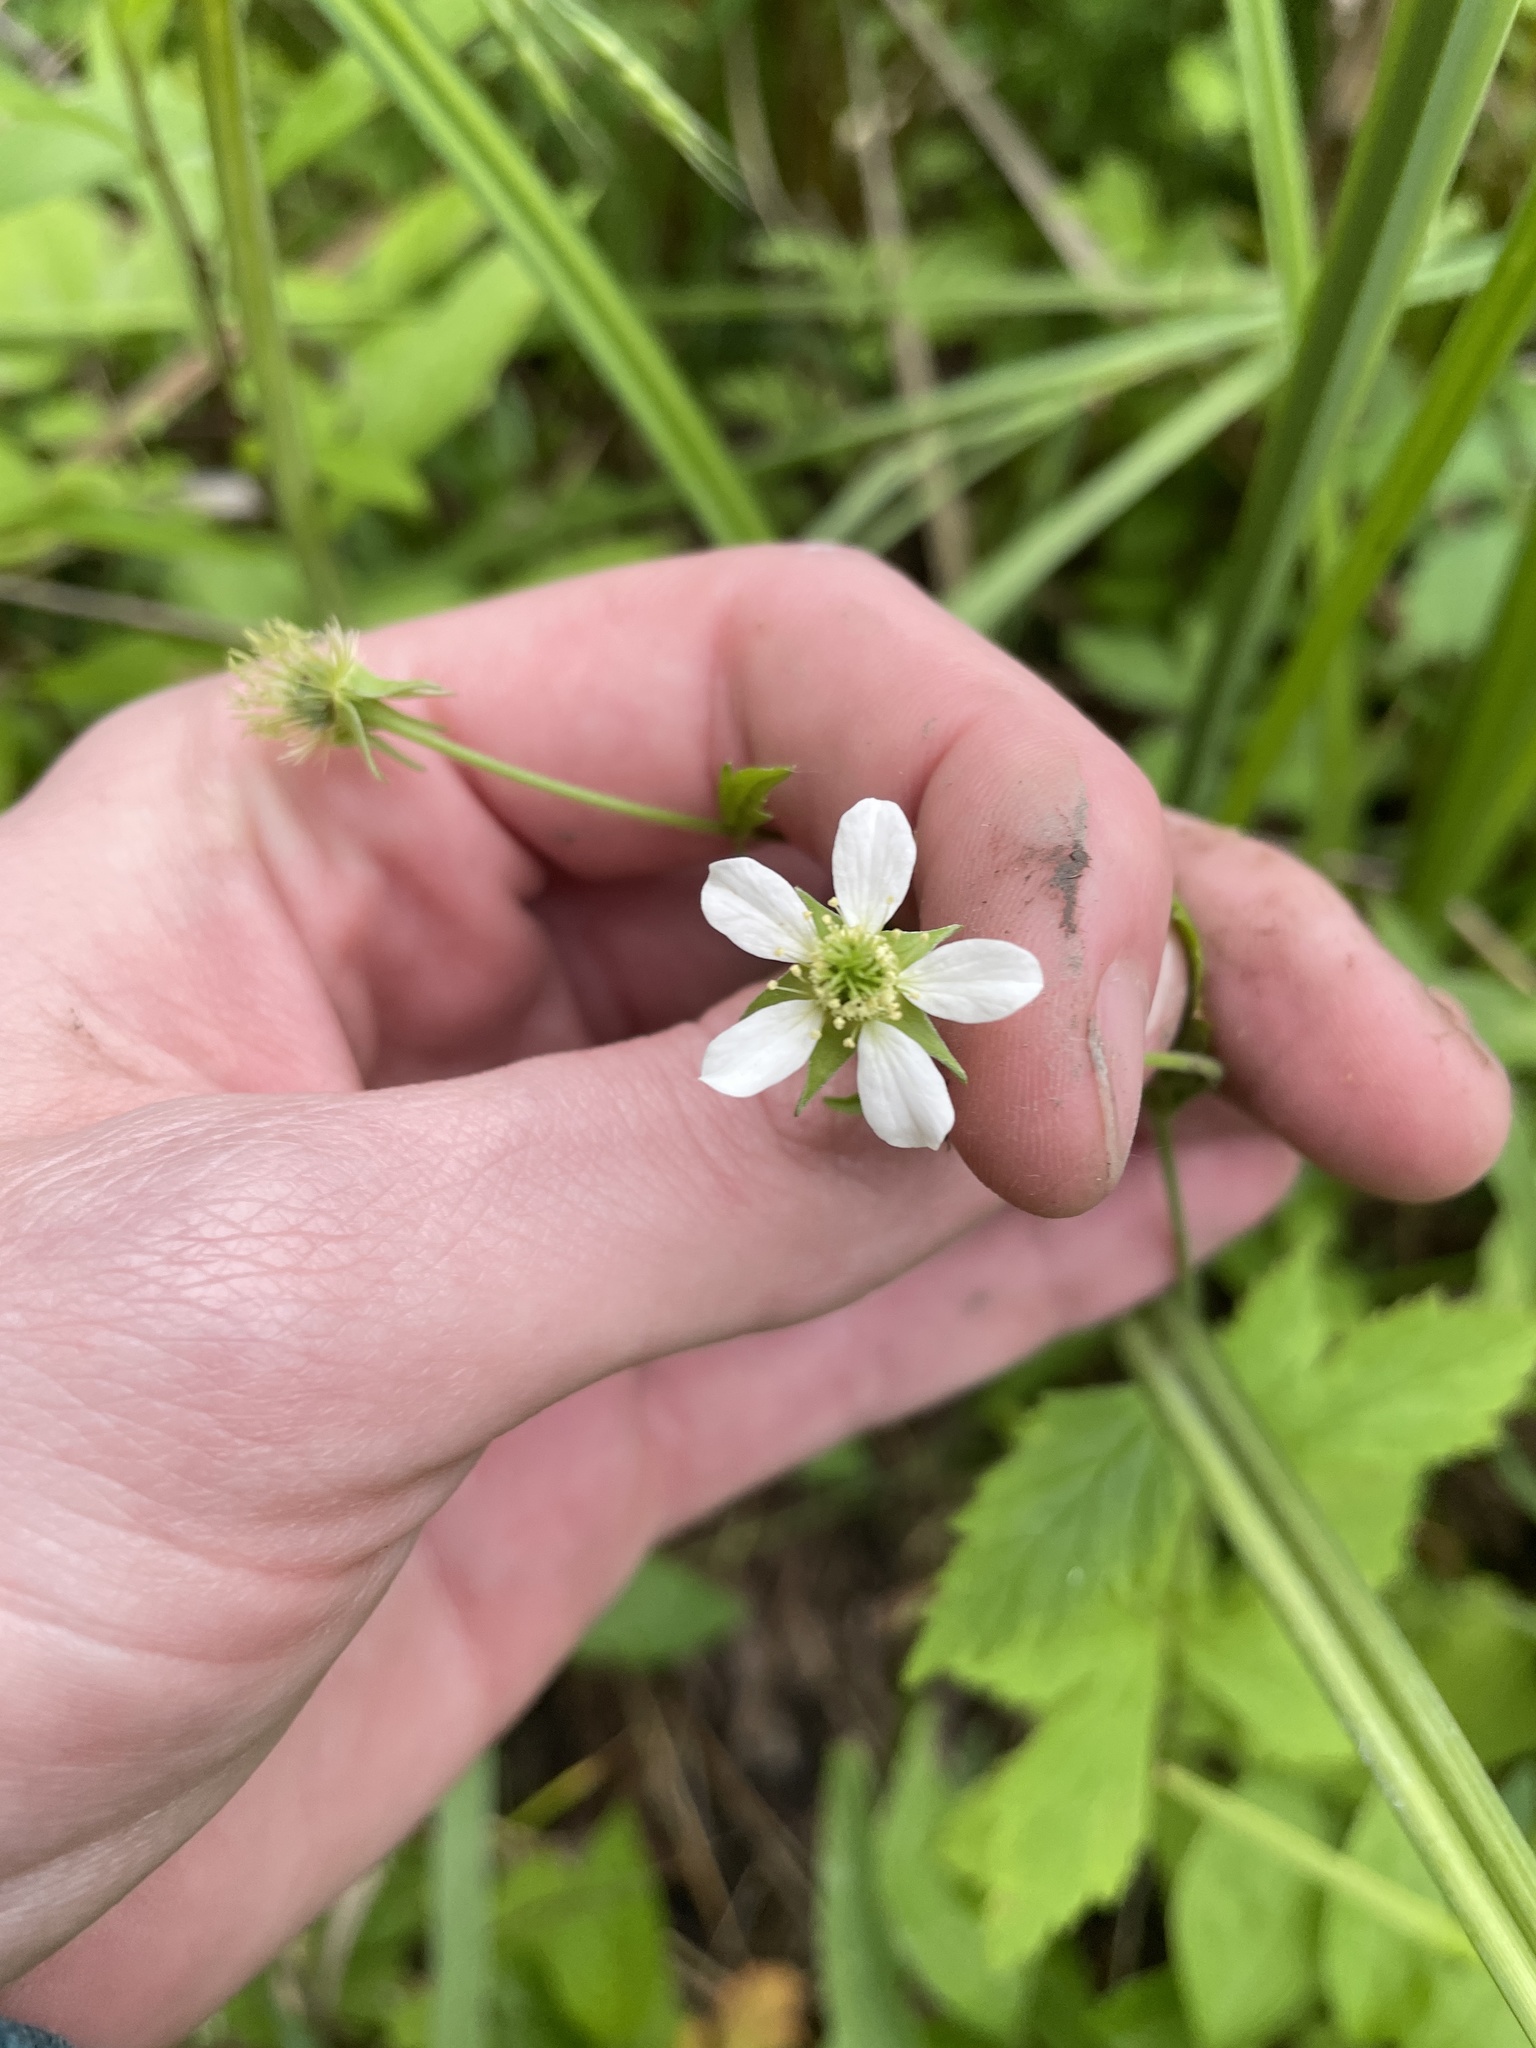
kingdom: Plantae
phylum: Tracheophyta
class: Magnoliopsida
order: Rosales
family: Rosaceae
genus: Geum
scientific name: Geum canadense
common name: White avens
